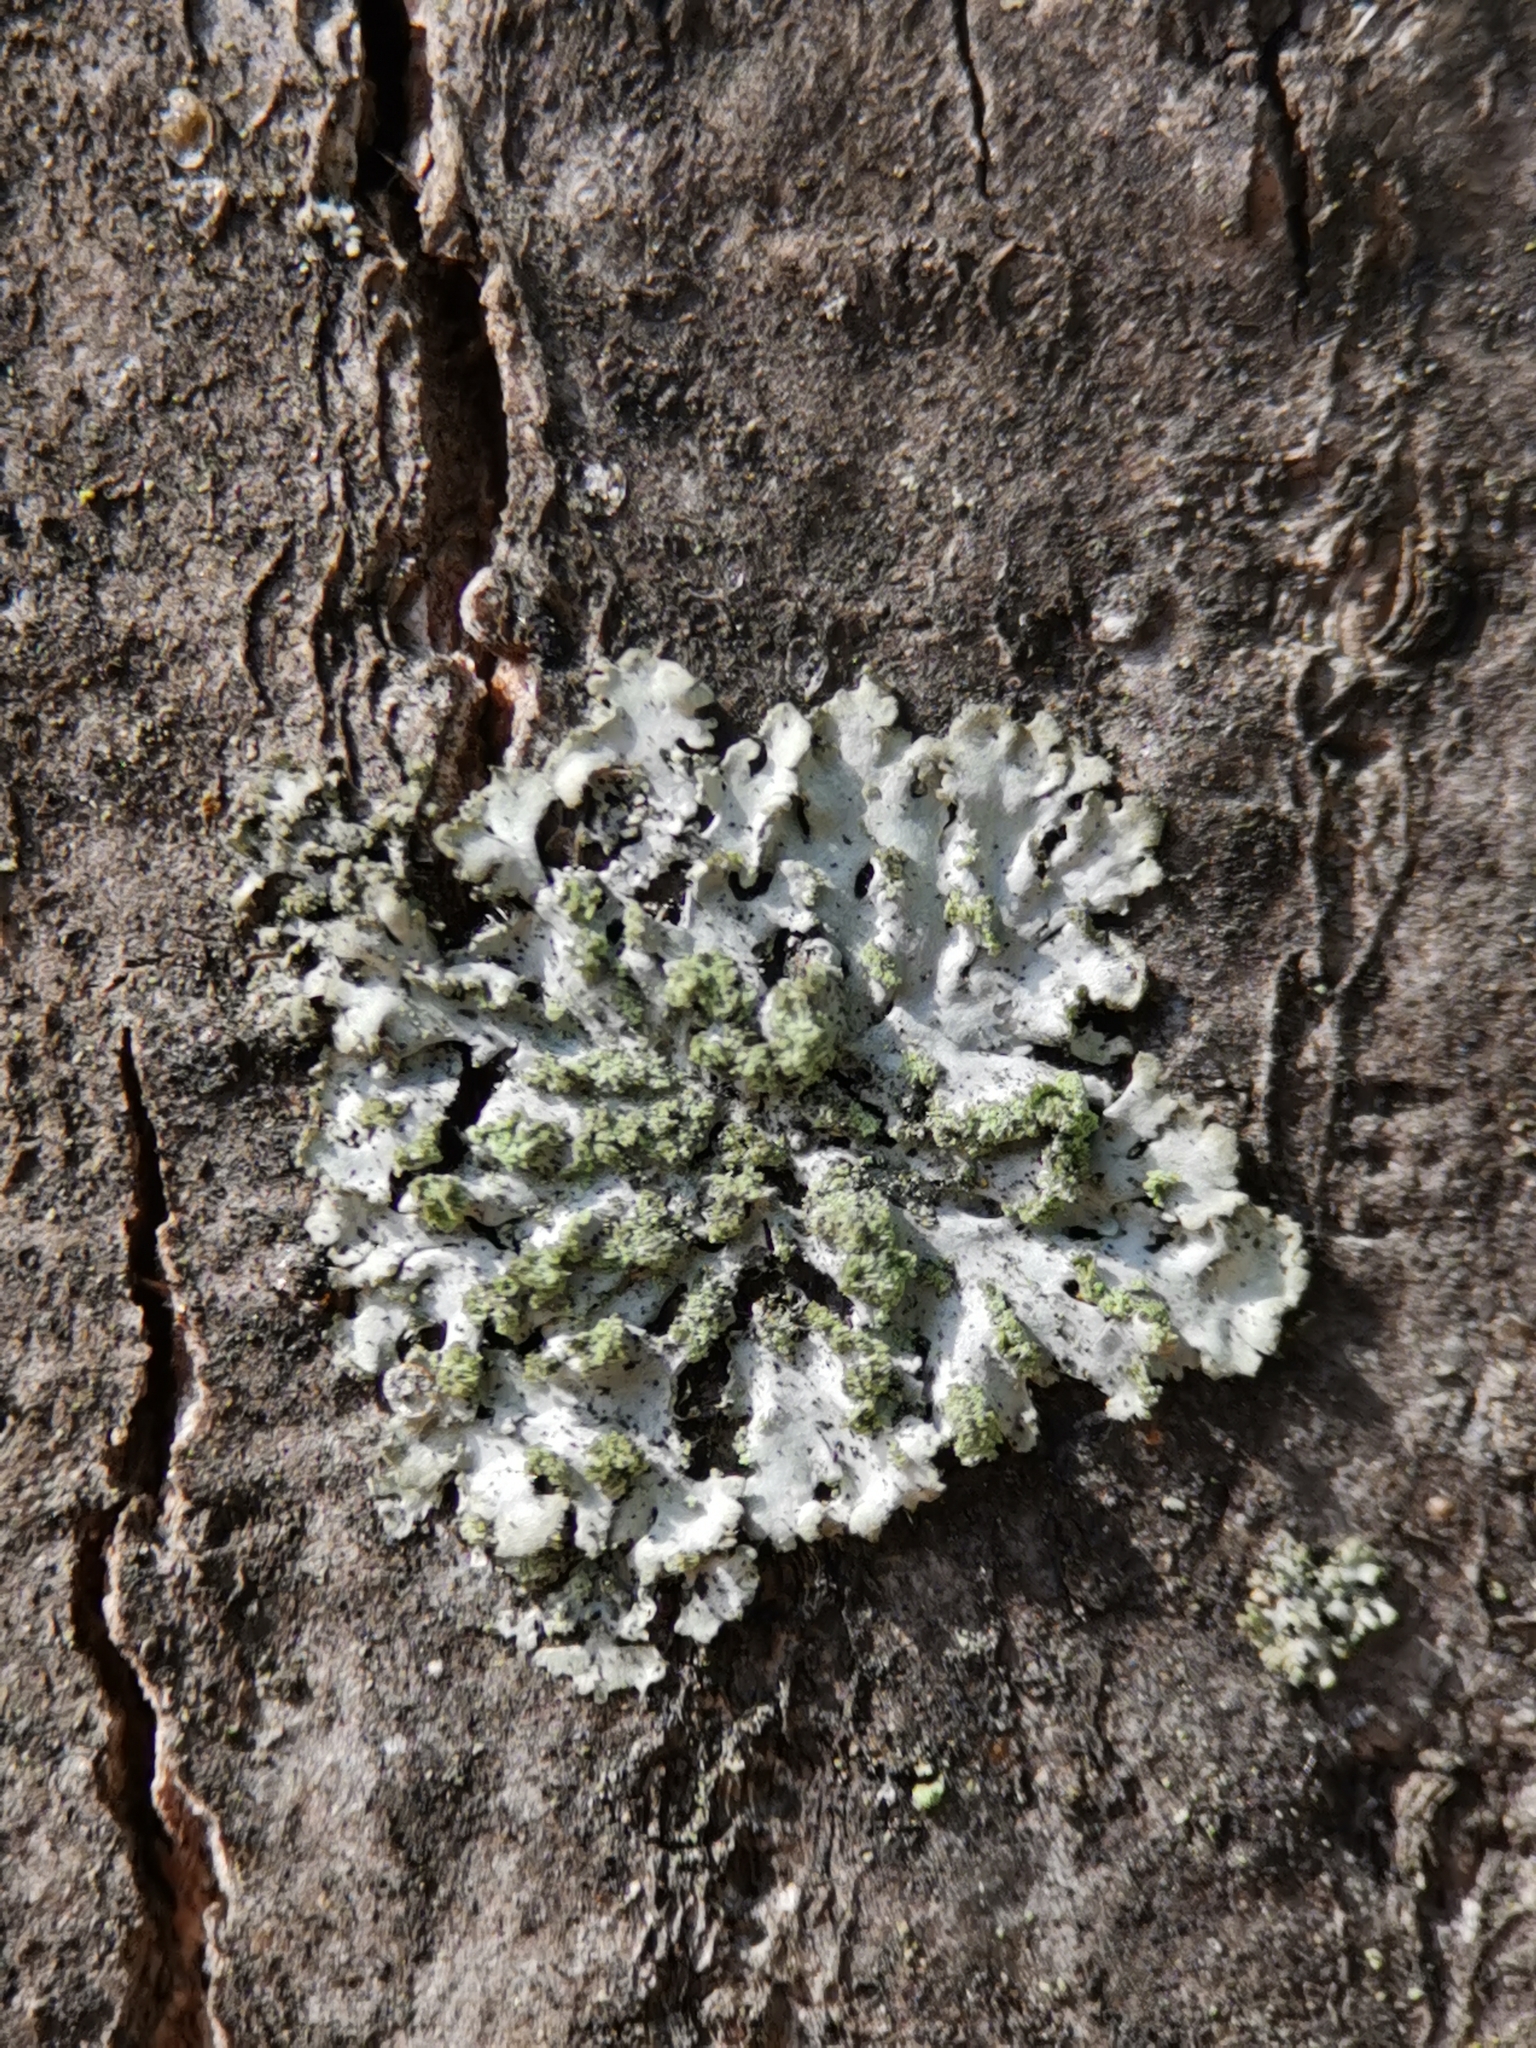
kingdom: Fungi
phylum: Ascomycota
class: Lecanoromycetes
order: Caliciales
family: Physciaceae
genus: Phaeophyscia
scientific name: Phaeophyscia orbicularis
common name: Mealy shadow lichen
